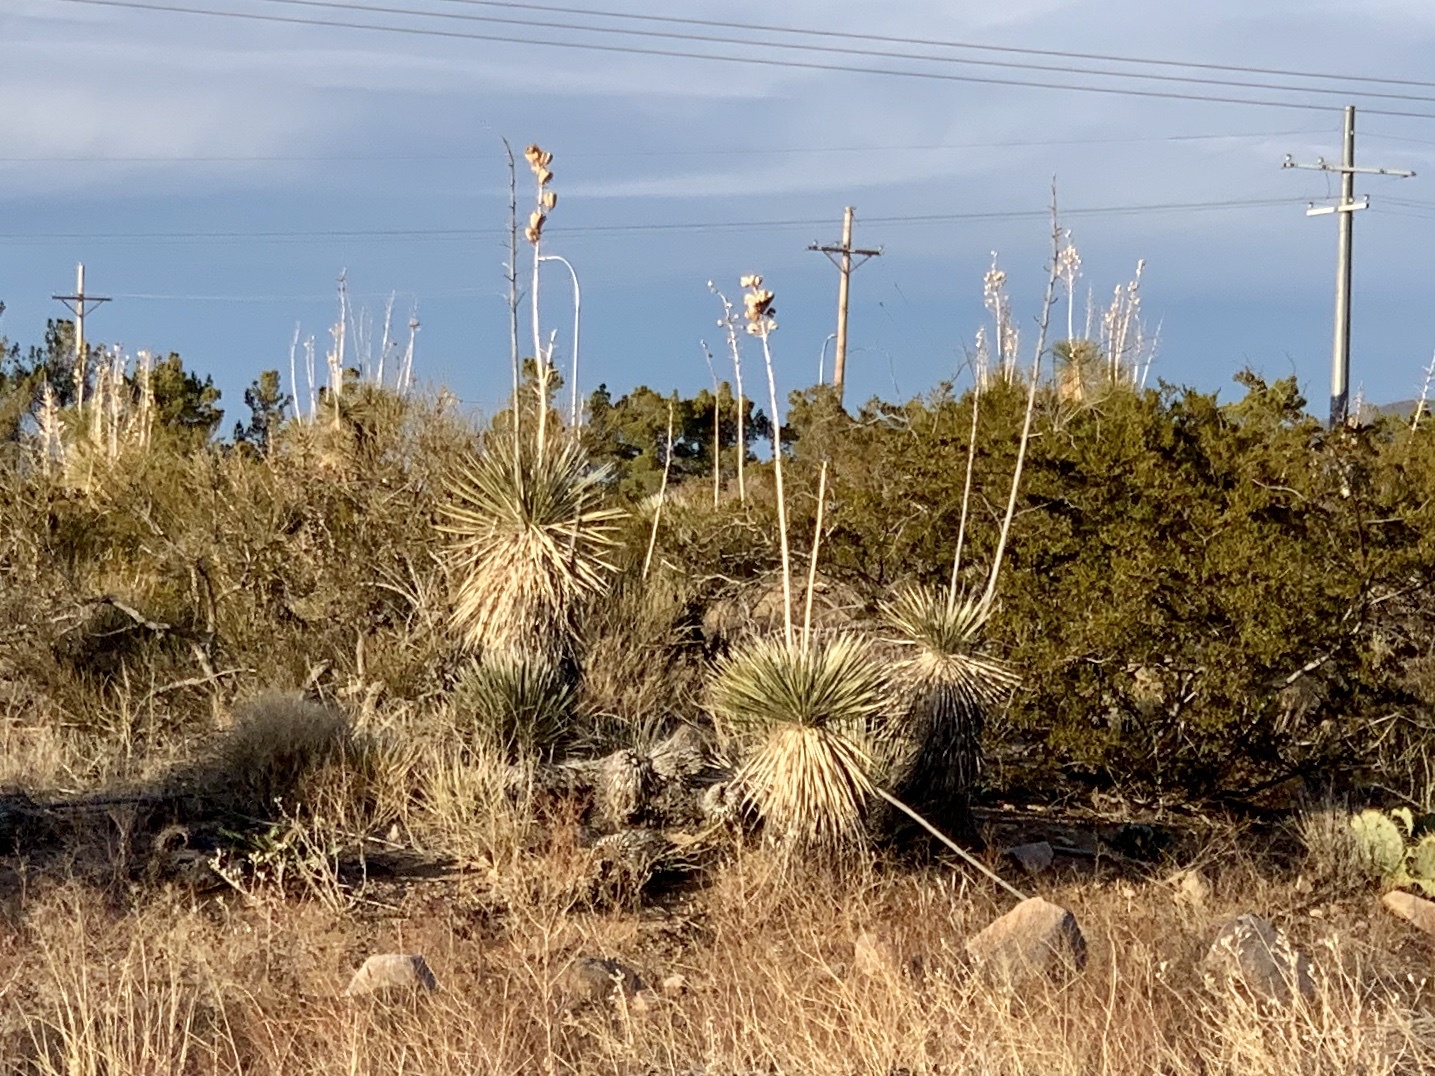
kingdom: Plantae
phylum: Tracheophyta
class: Liliopsida
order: Asparagales
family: Asparagaceae
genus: Yucca
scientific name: Yucca elata
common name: Palmella
